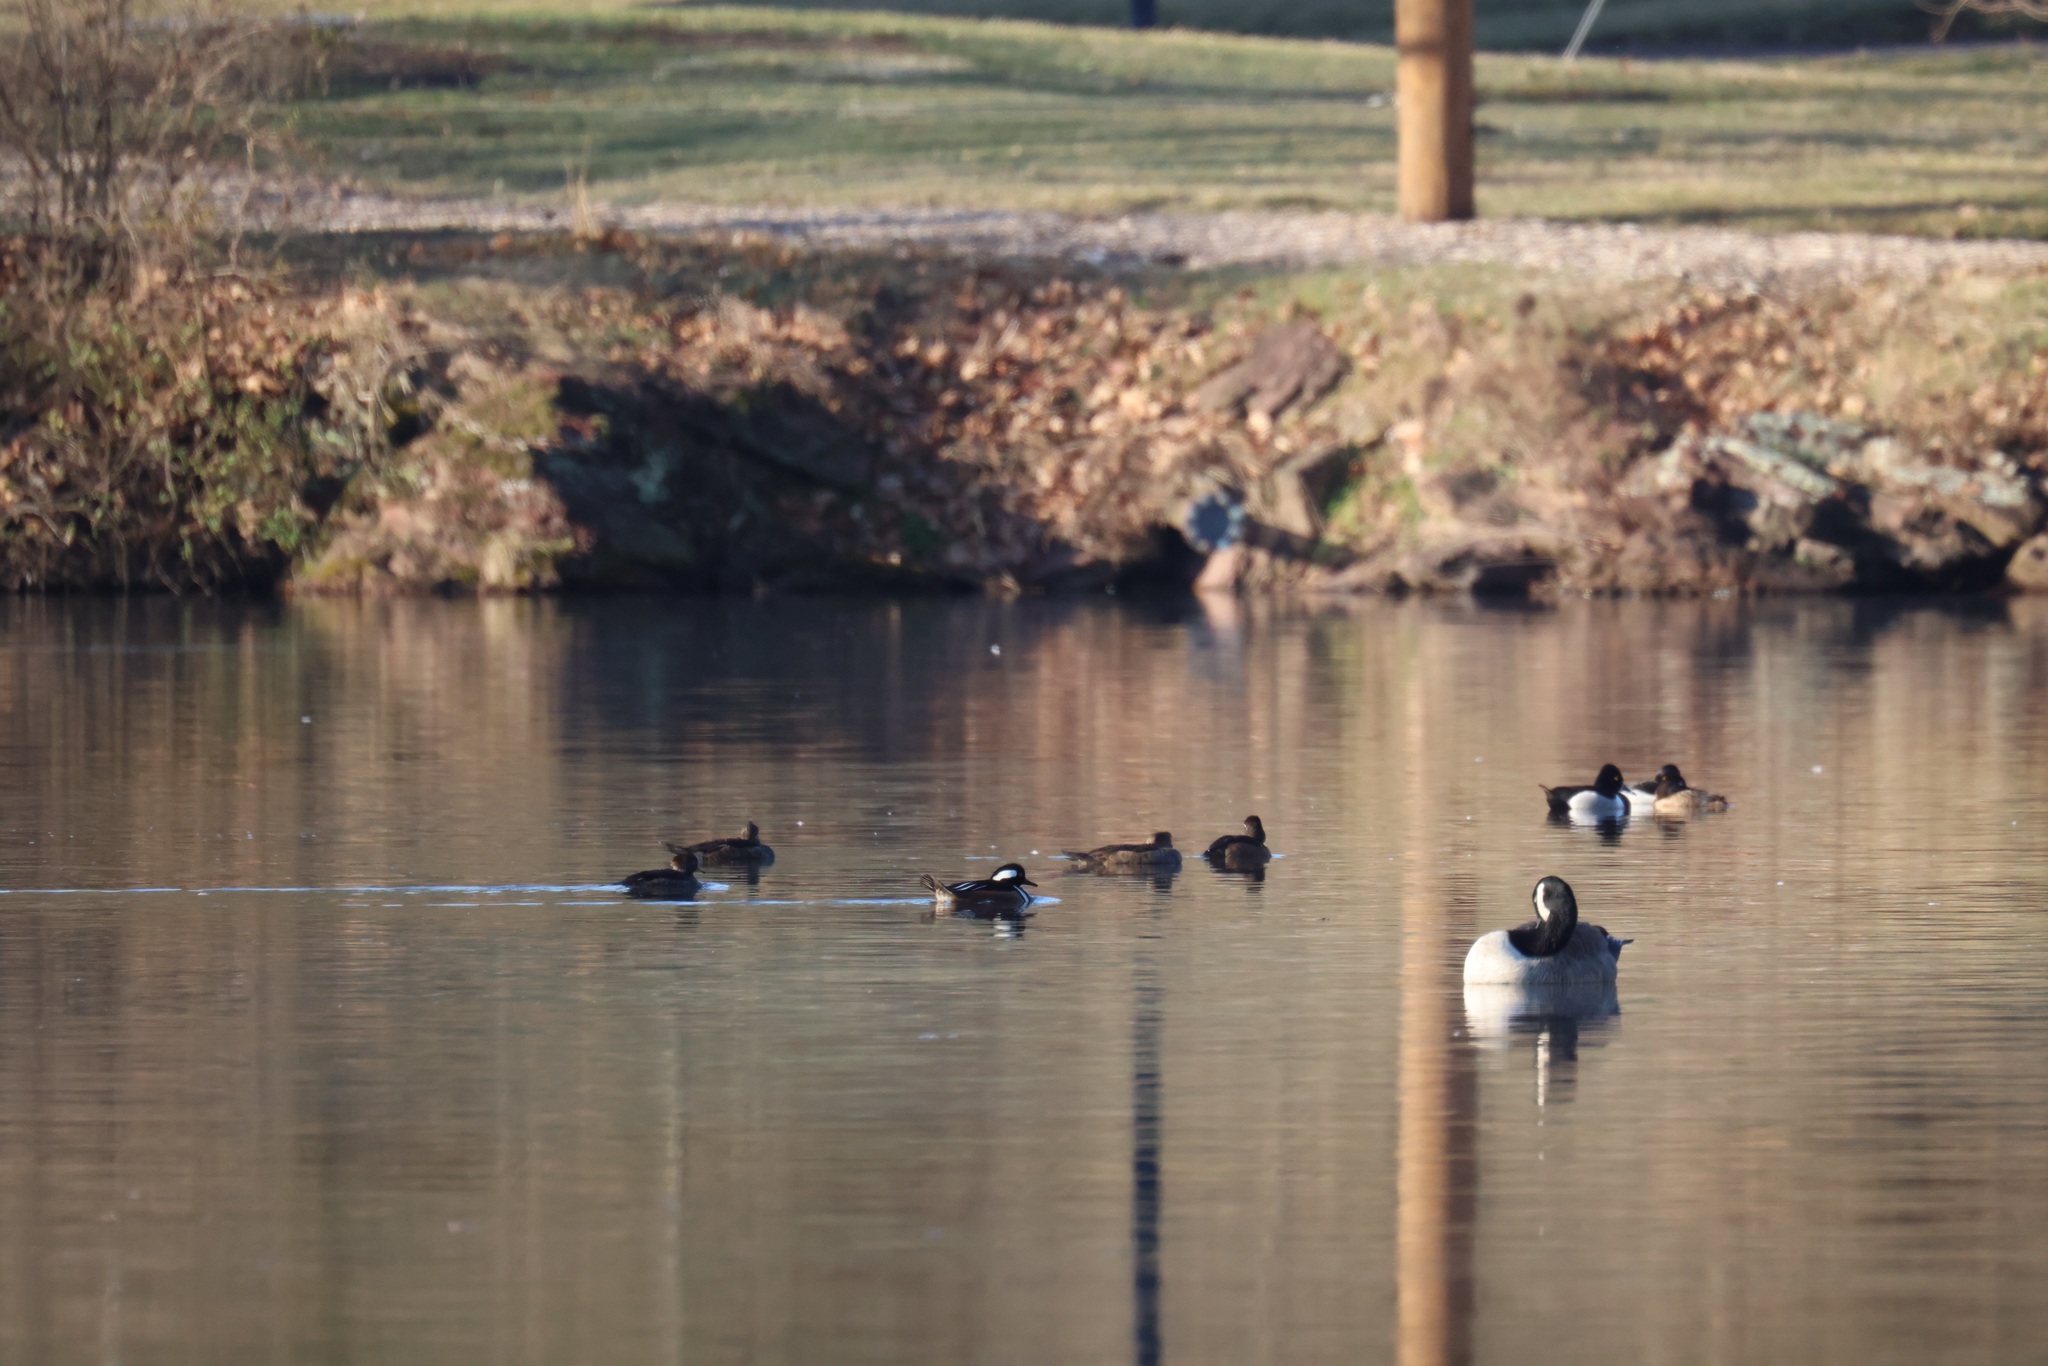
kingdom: Animalia
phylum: Chordata
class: Aves
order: Anseriformes
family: Anatidae
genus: Lophodytes
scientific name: Lophodytes cucullatus
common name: Hooded merganser
